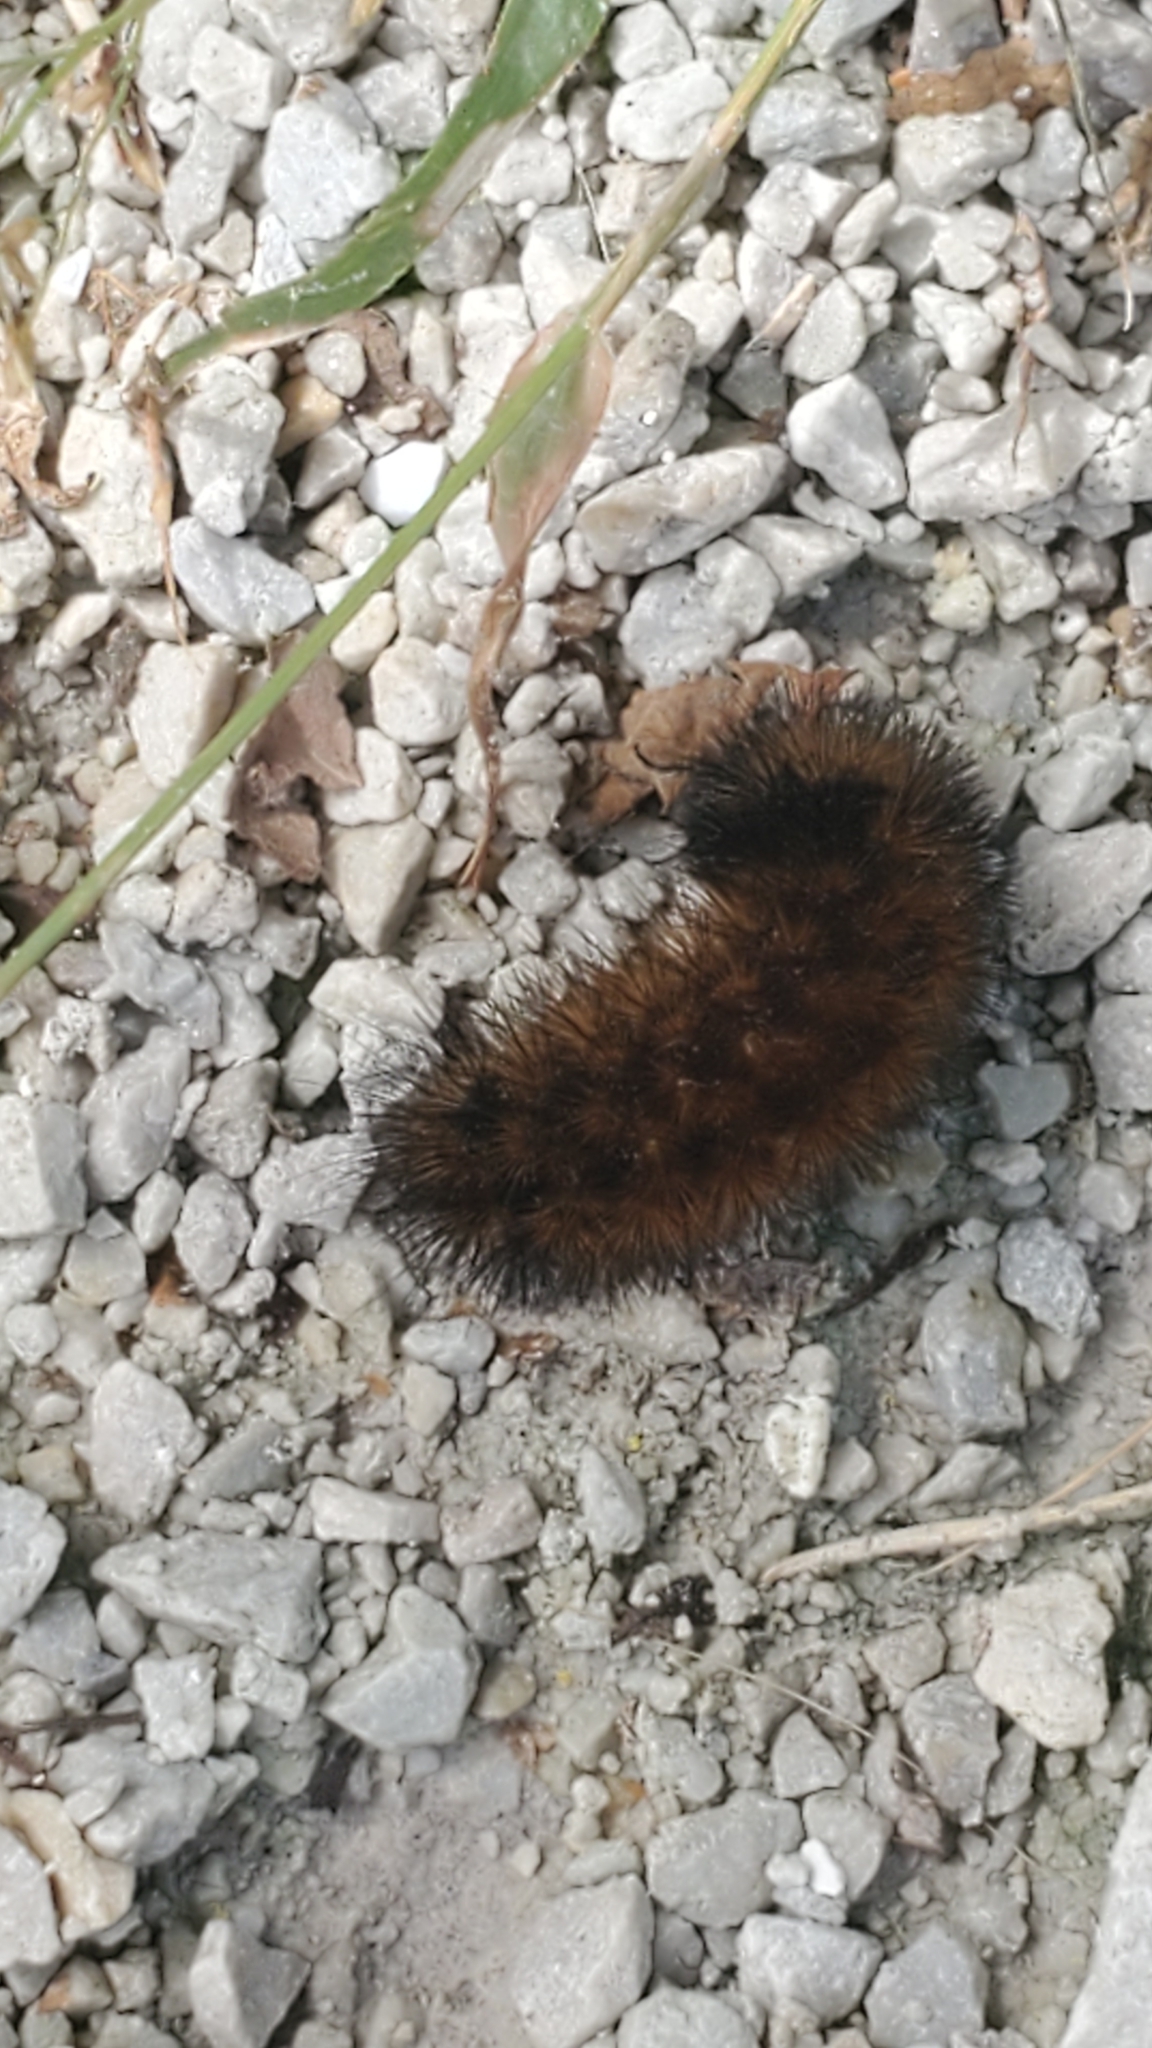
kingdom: Animalia
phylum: Arthropoda
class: Insecta
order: Lepidoptera
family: Erebidae
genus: Pyrrharctia
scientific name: Pyrrharctia isabella
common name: Isabella tiger moth
